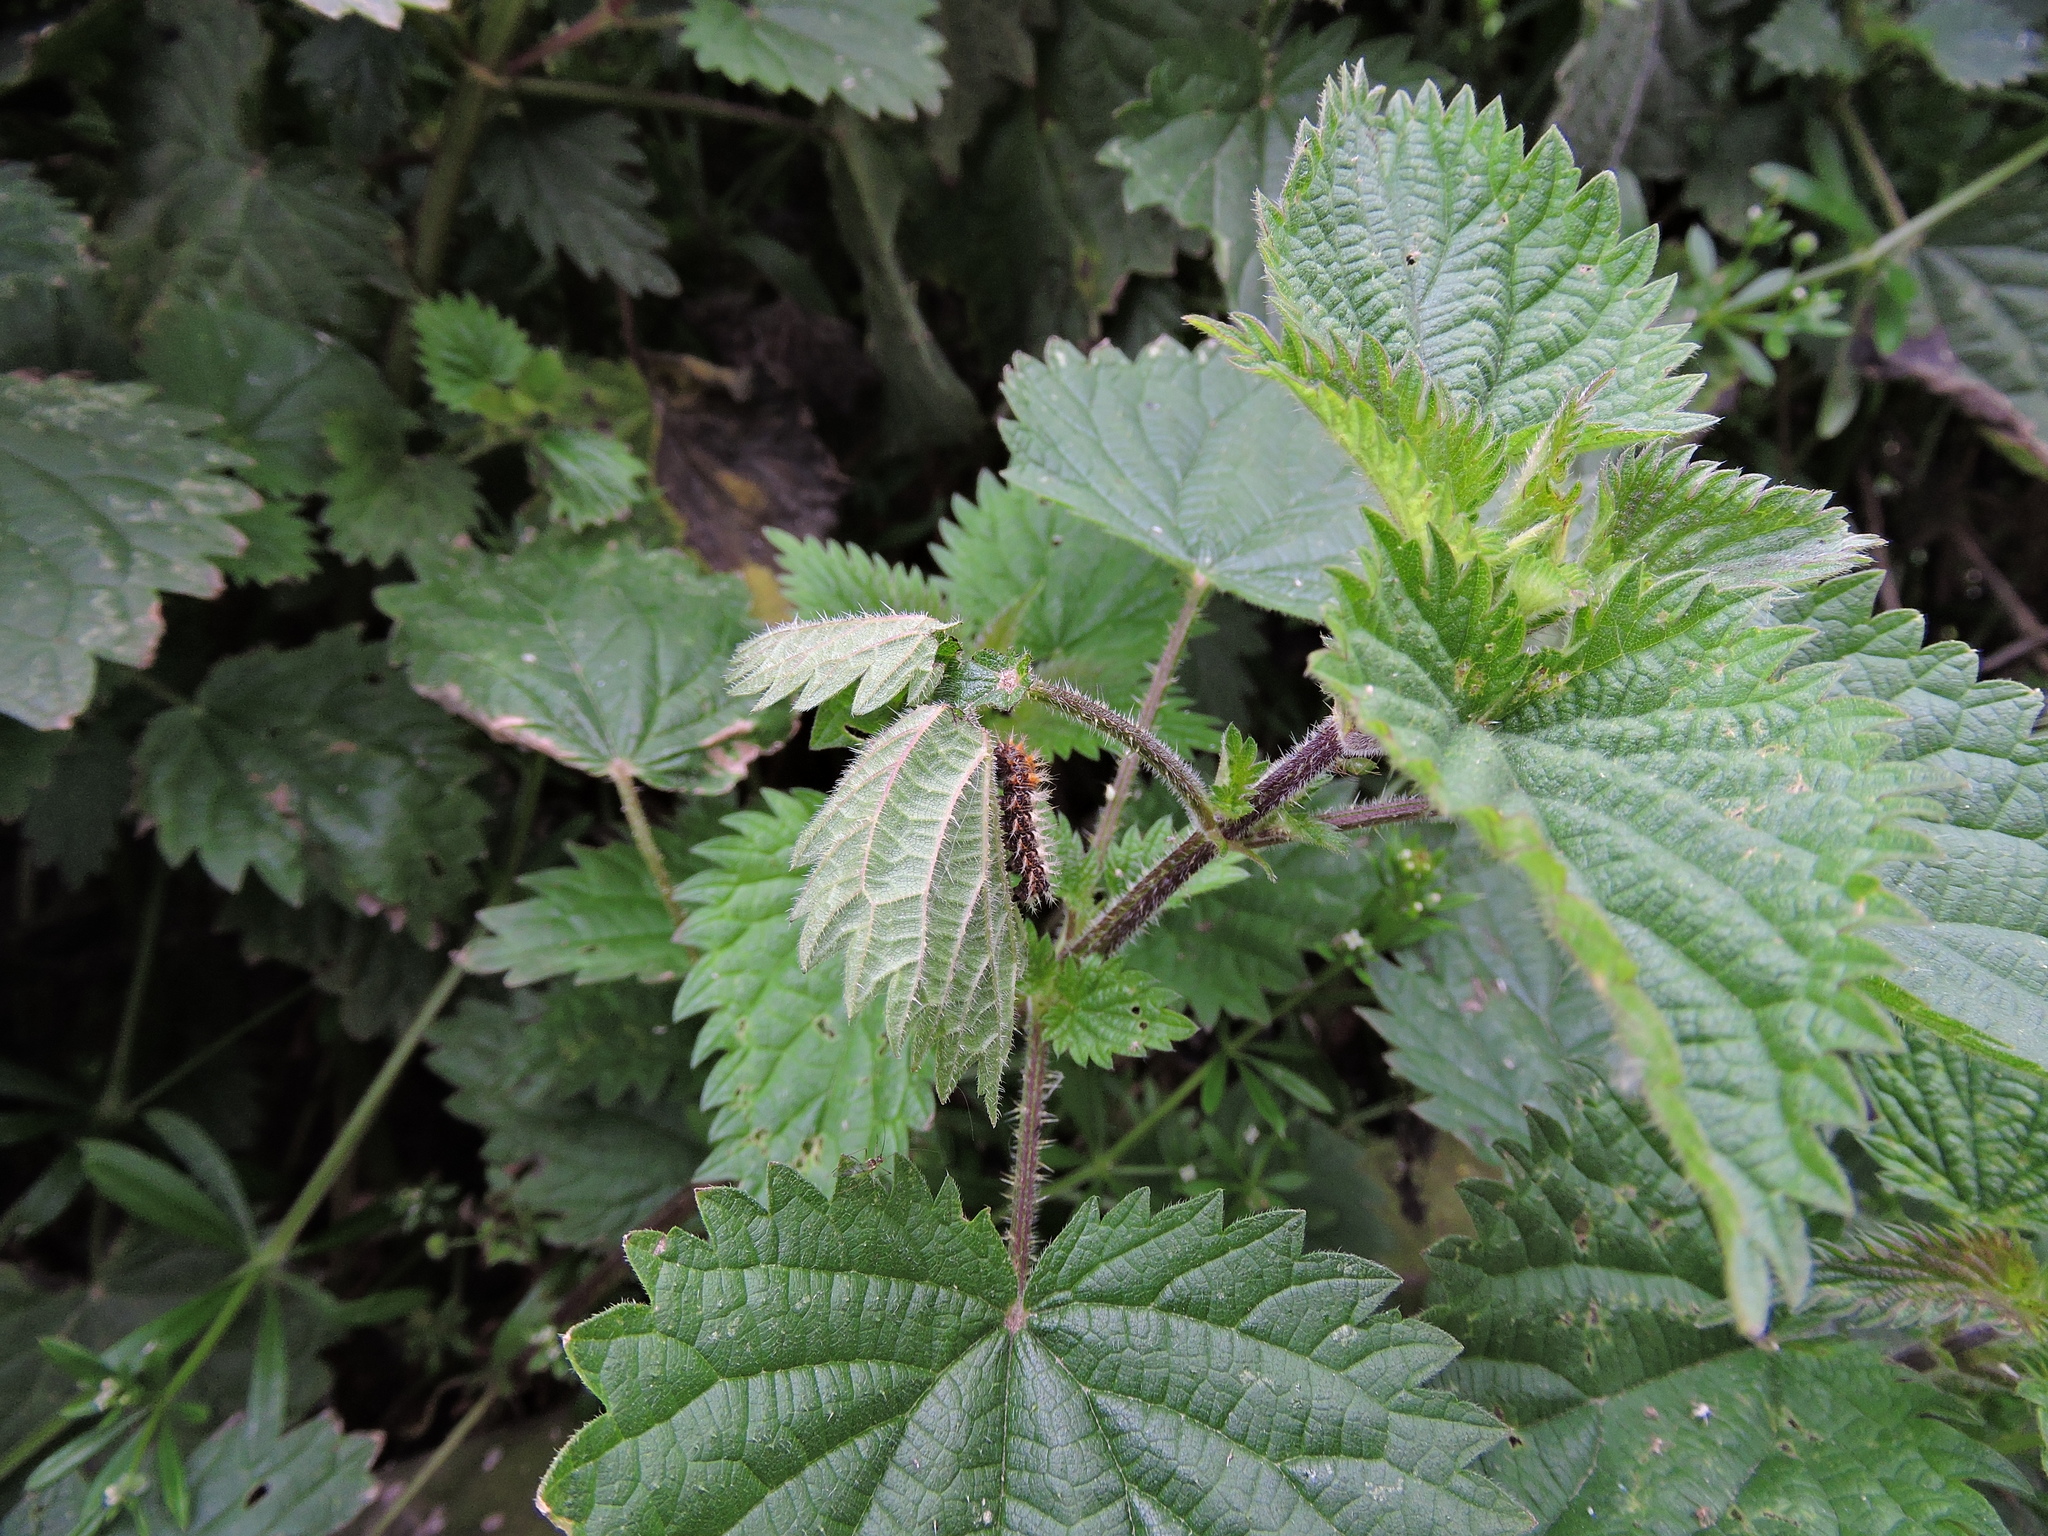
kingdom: Animalia
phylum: Arthropoda
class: Insecta
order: Lepidoptera
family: Nymphalidae
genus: Polygonia
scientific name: Polygonia c-album
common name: Comma
